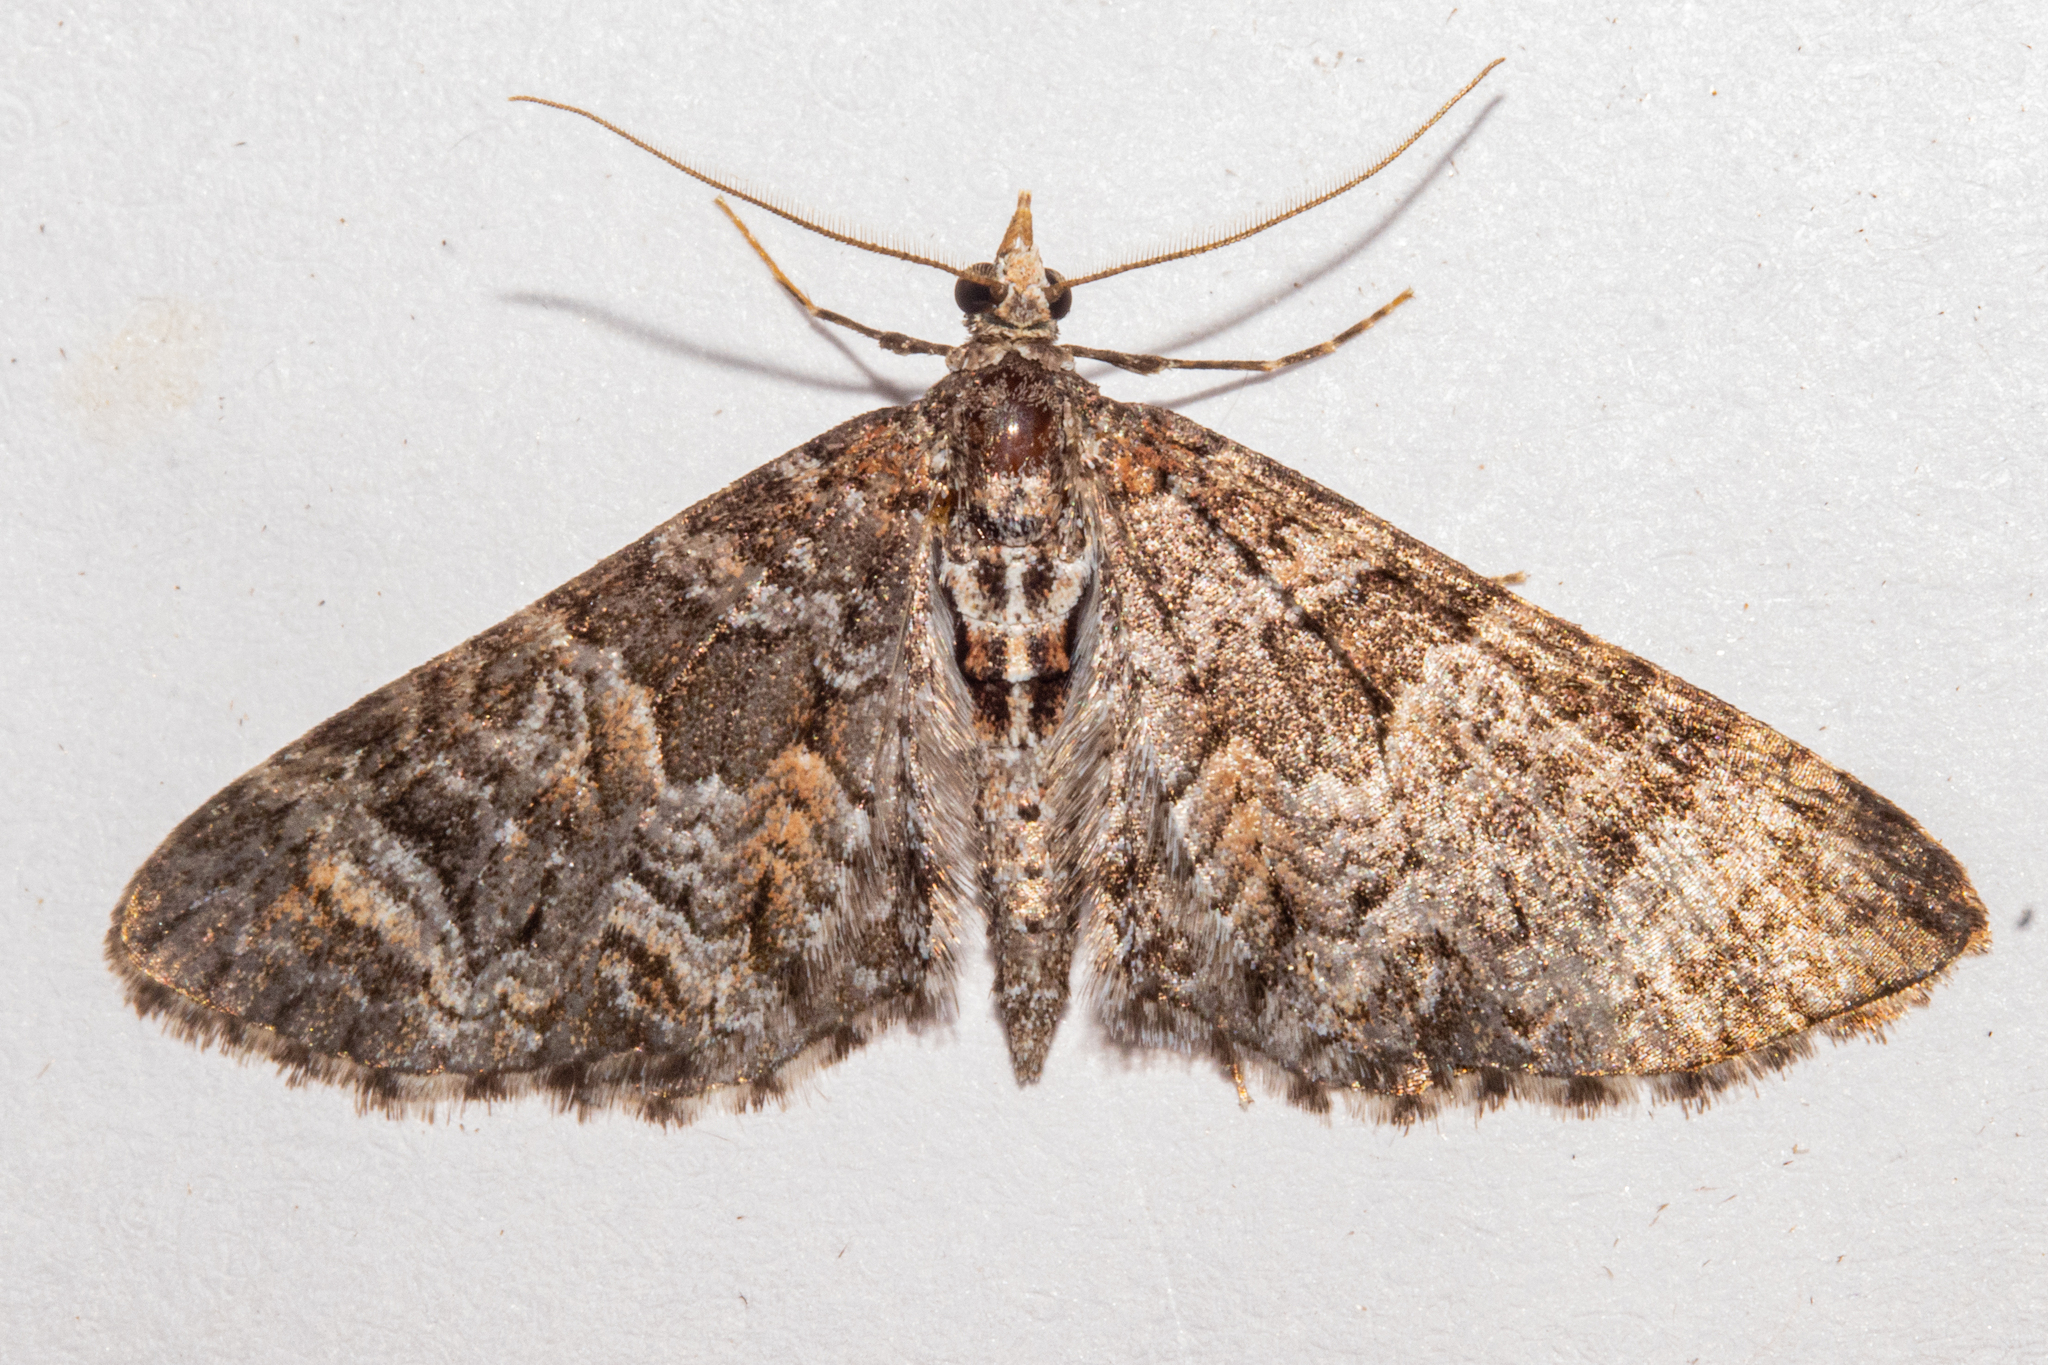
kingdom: Animalia
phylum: Arthropoda
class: Insecta
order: Lepidoptera
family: Geometridae
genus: Pasiphila
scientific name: Pasiphila halianthes
